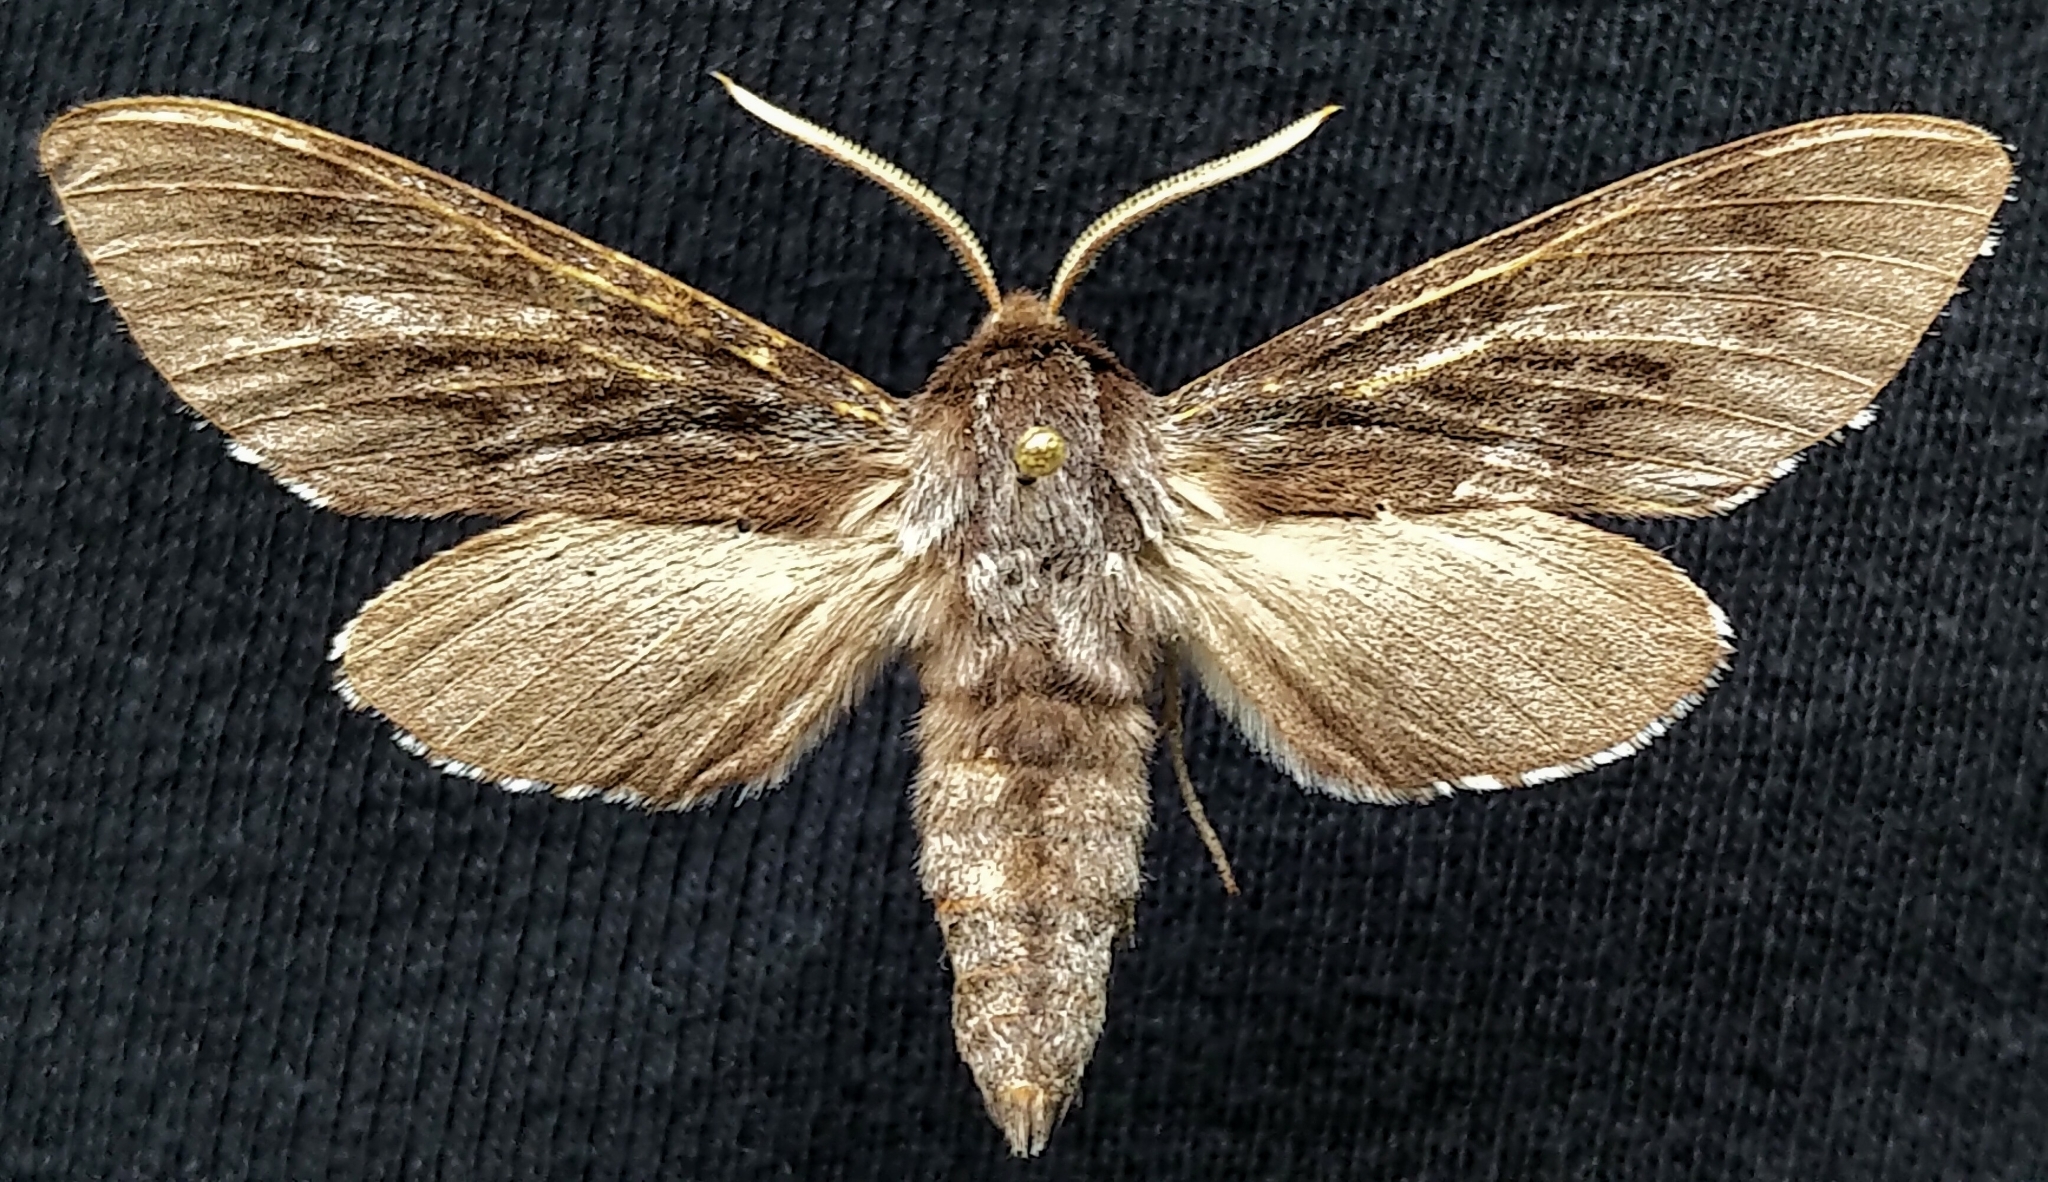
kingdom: Animalia
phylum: Arthropoda
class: Insecta
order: Lepidoptera
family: Sphingidae
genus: Lapara
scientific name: Lapara bombycoides
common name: Northern pine sphinx
